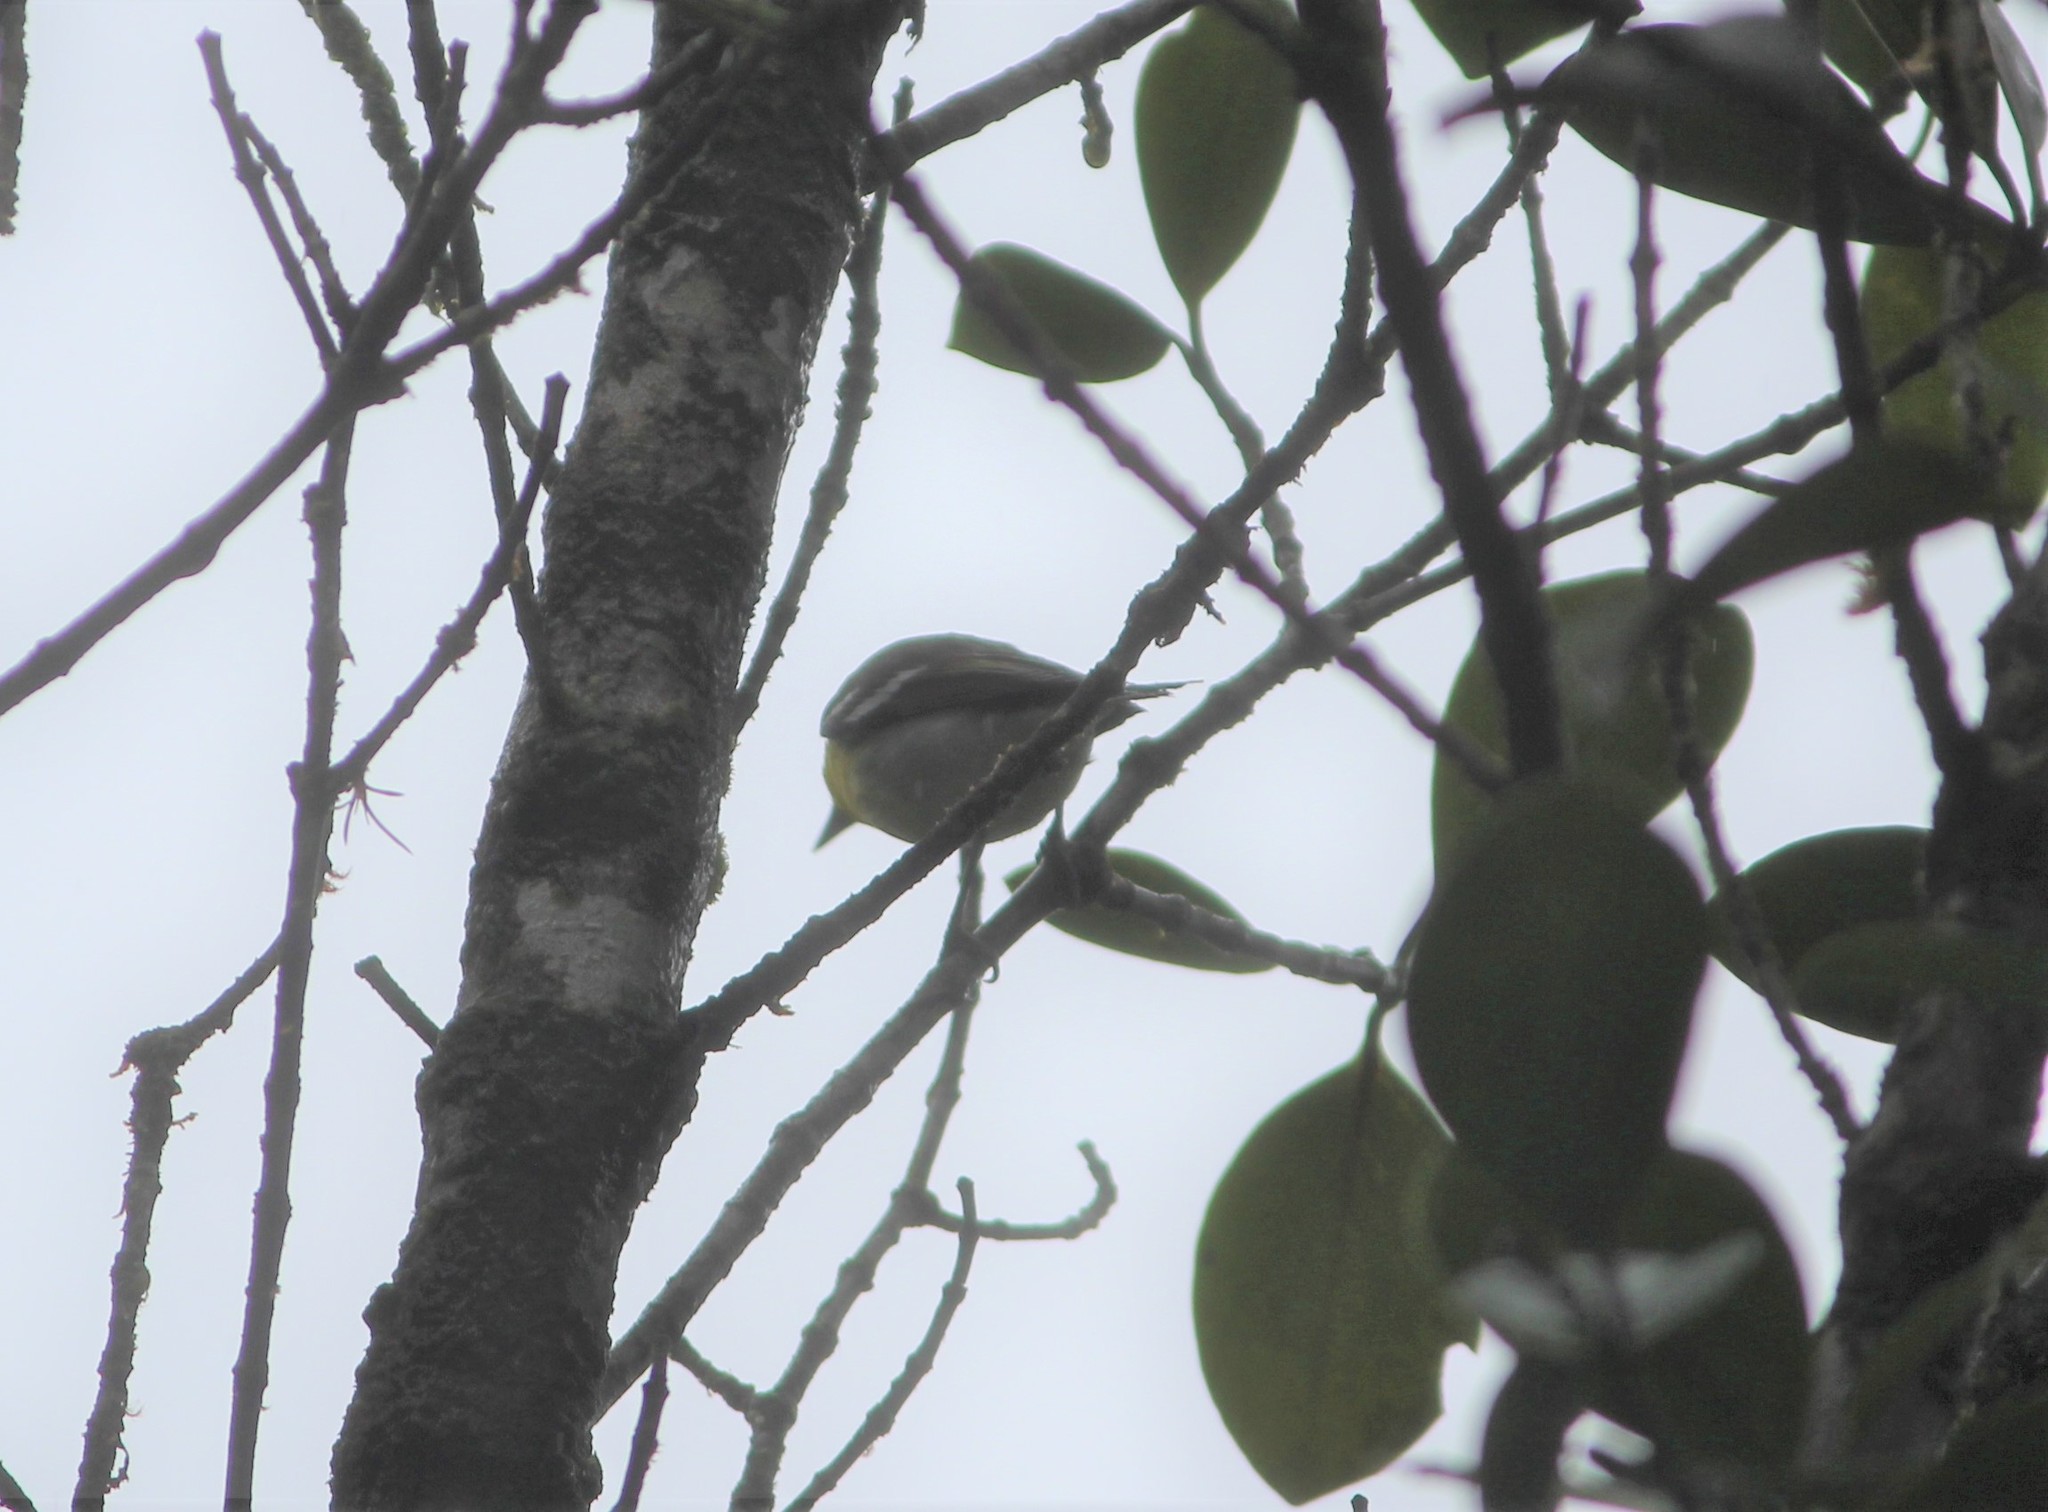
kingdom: Animalia
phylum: Chordata
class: Aves
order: Passeriformes
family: Vireonidae
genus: Vireo
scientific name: Vireo flavifrons
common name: Yellow-throated vireo
